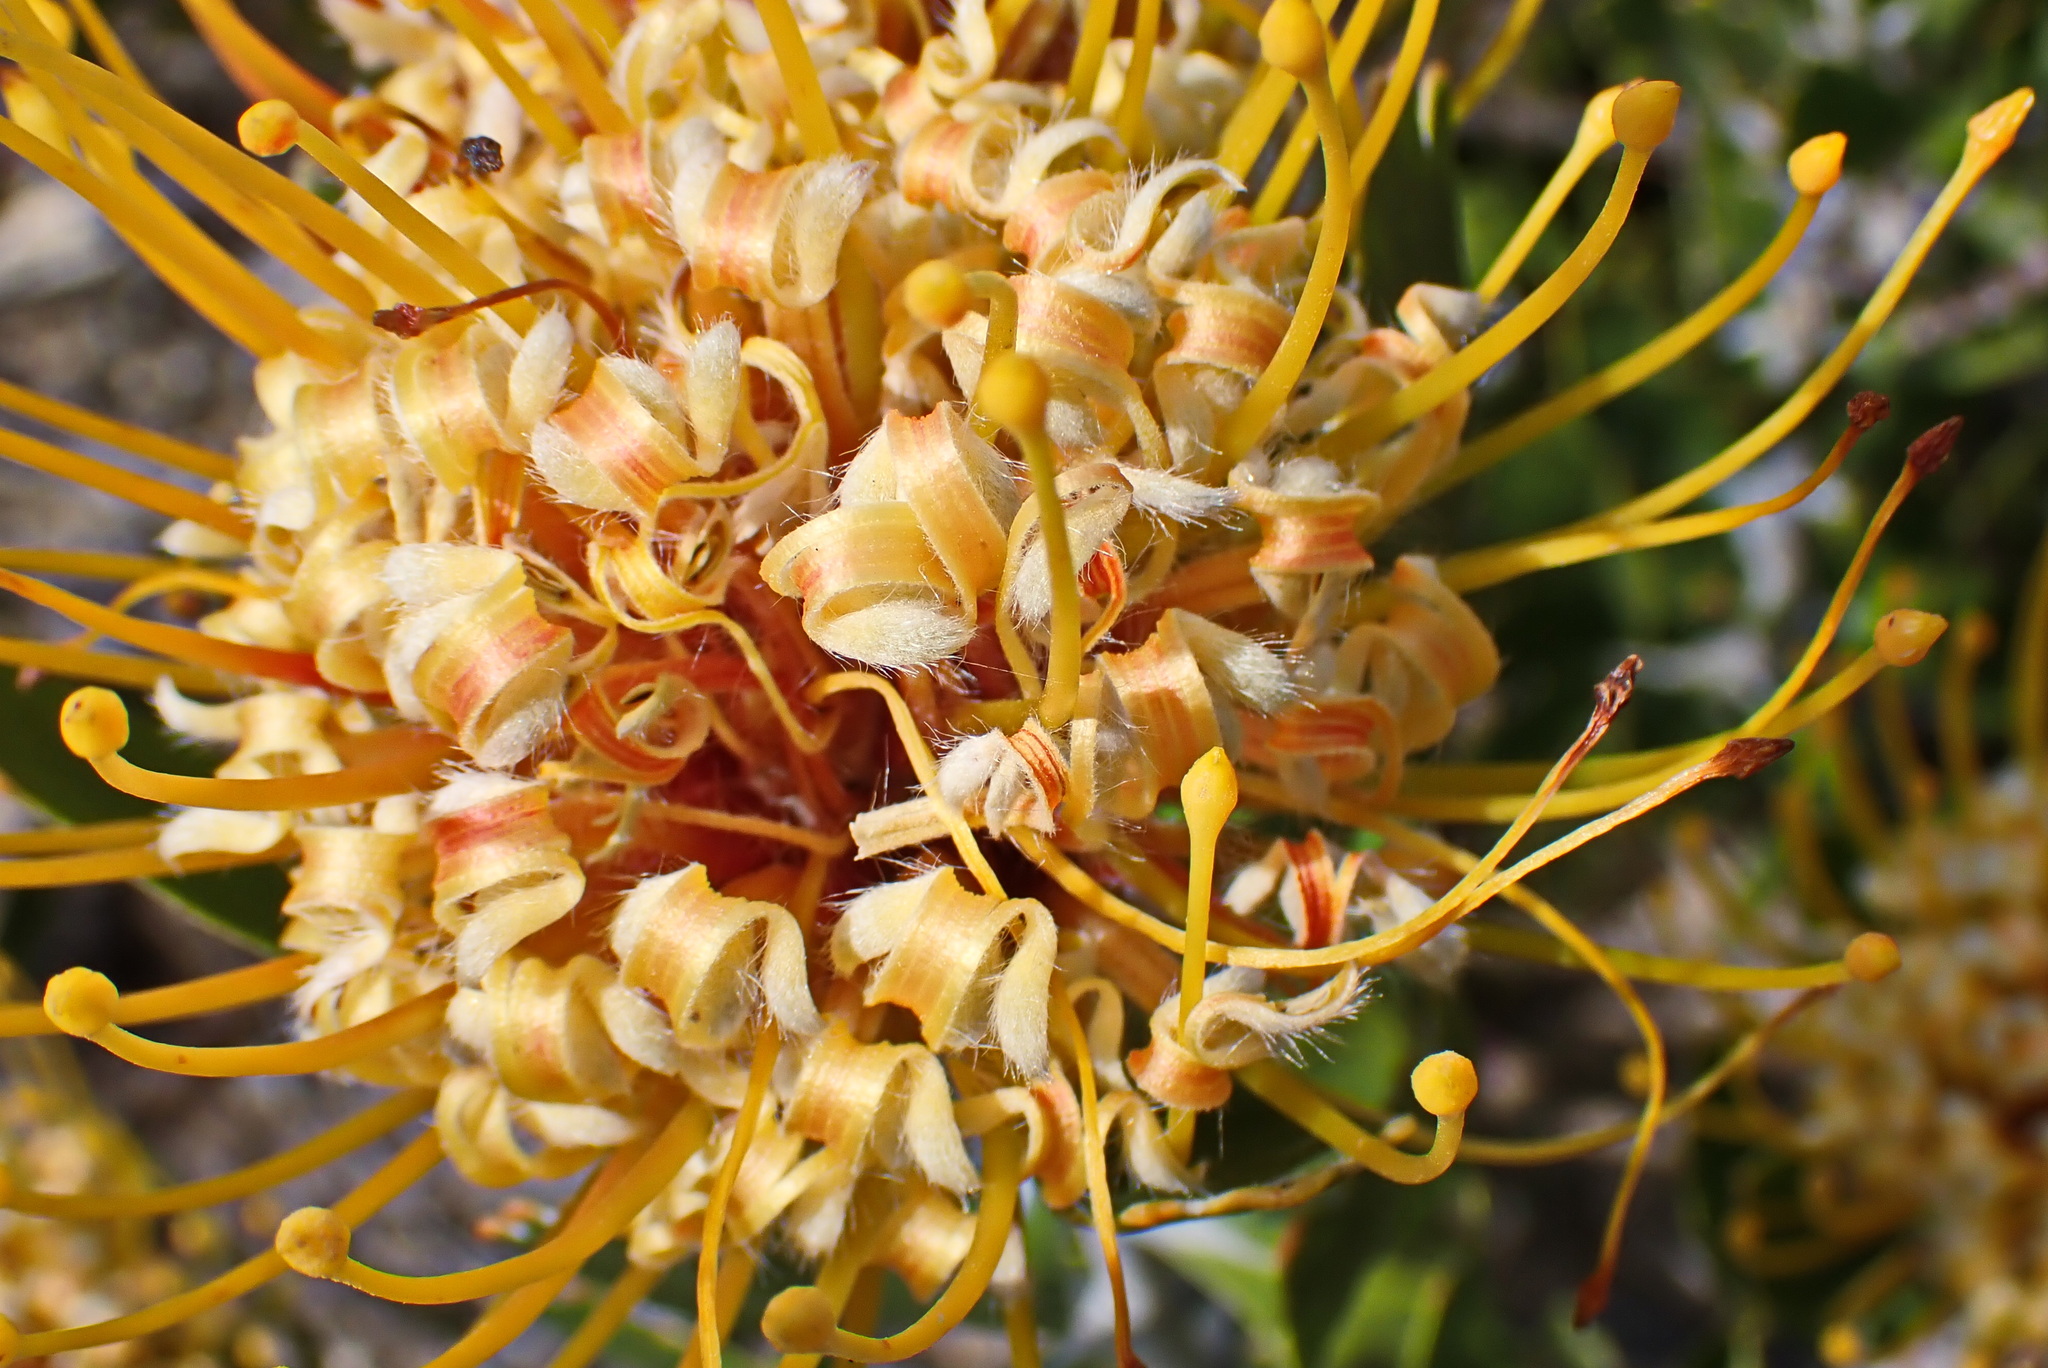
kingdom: Plantae
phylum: Tracheophyta
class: Magnoliopsida
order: Proteales
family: Proteaceae
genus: Leucospermum
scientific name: Leucospermum cuneiforme
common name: Common pincushion
